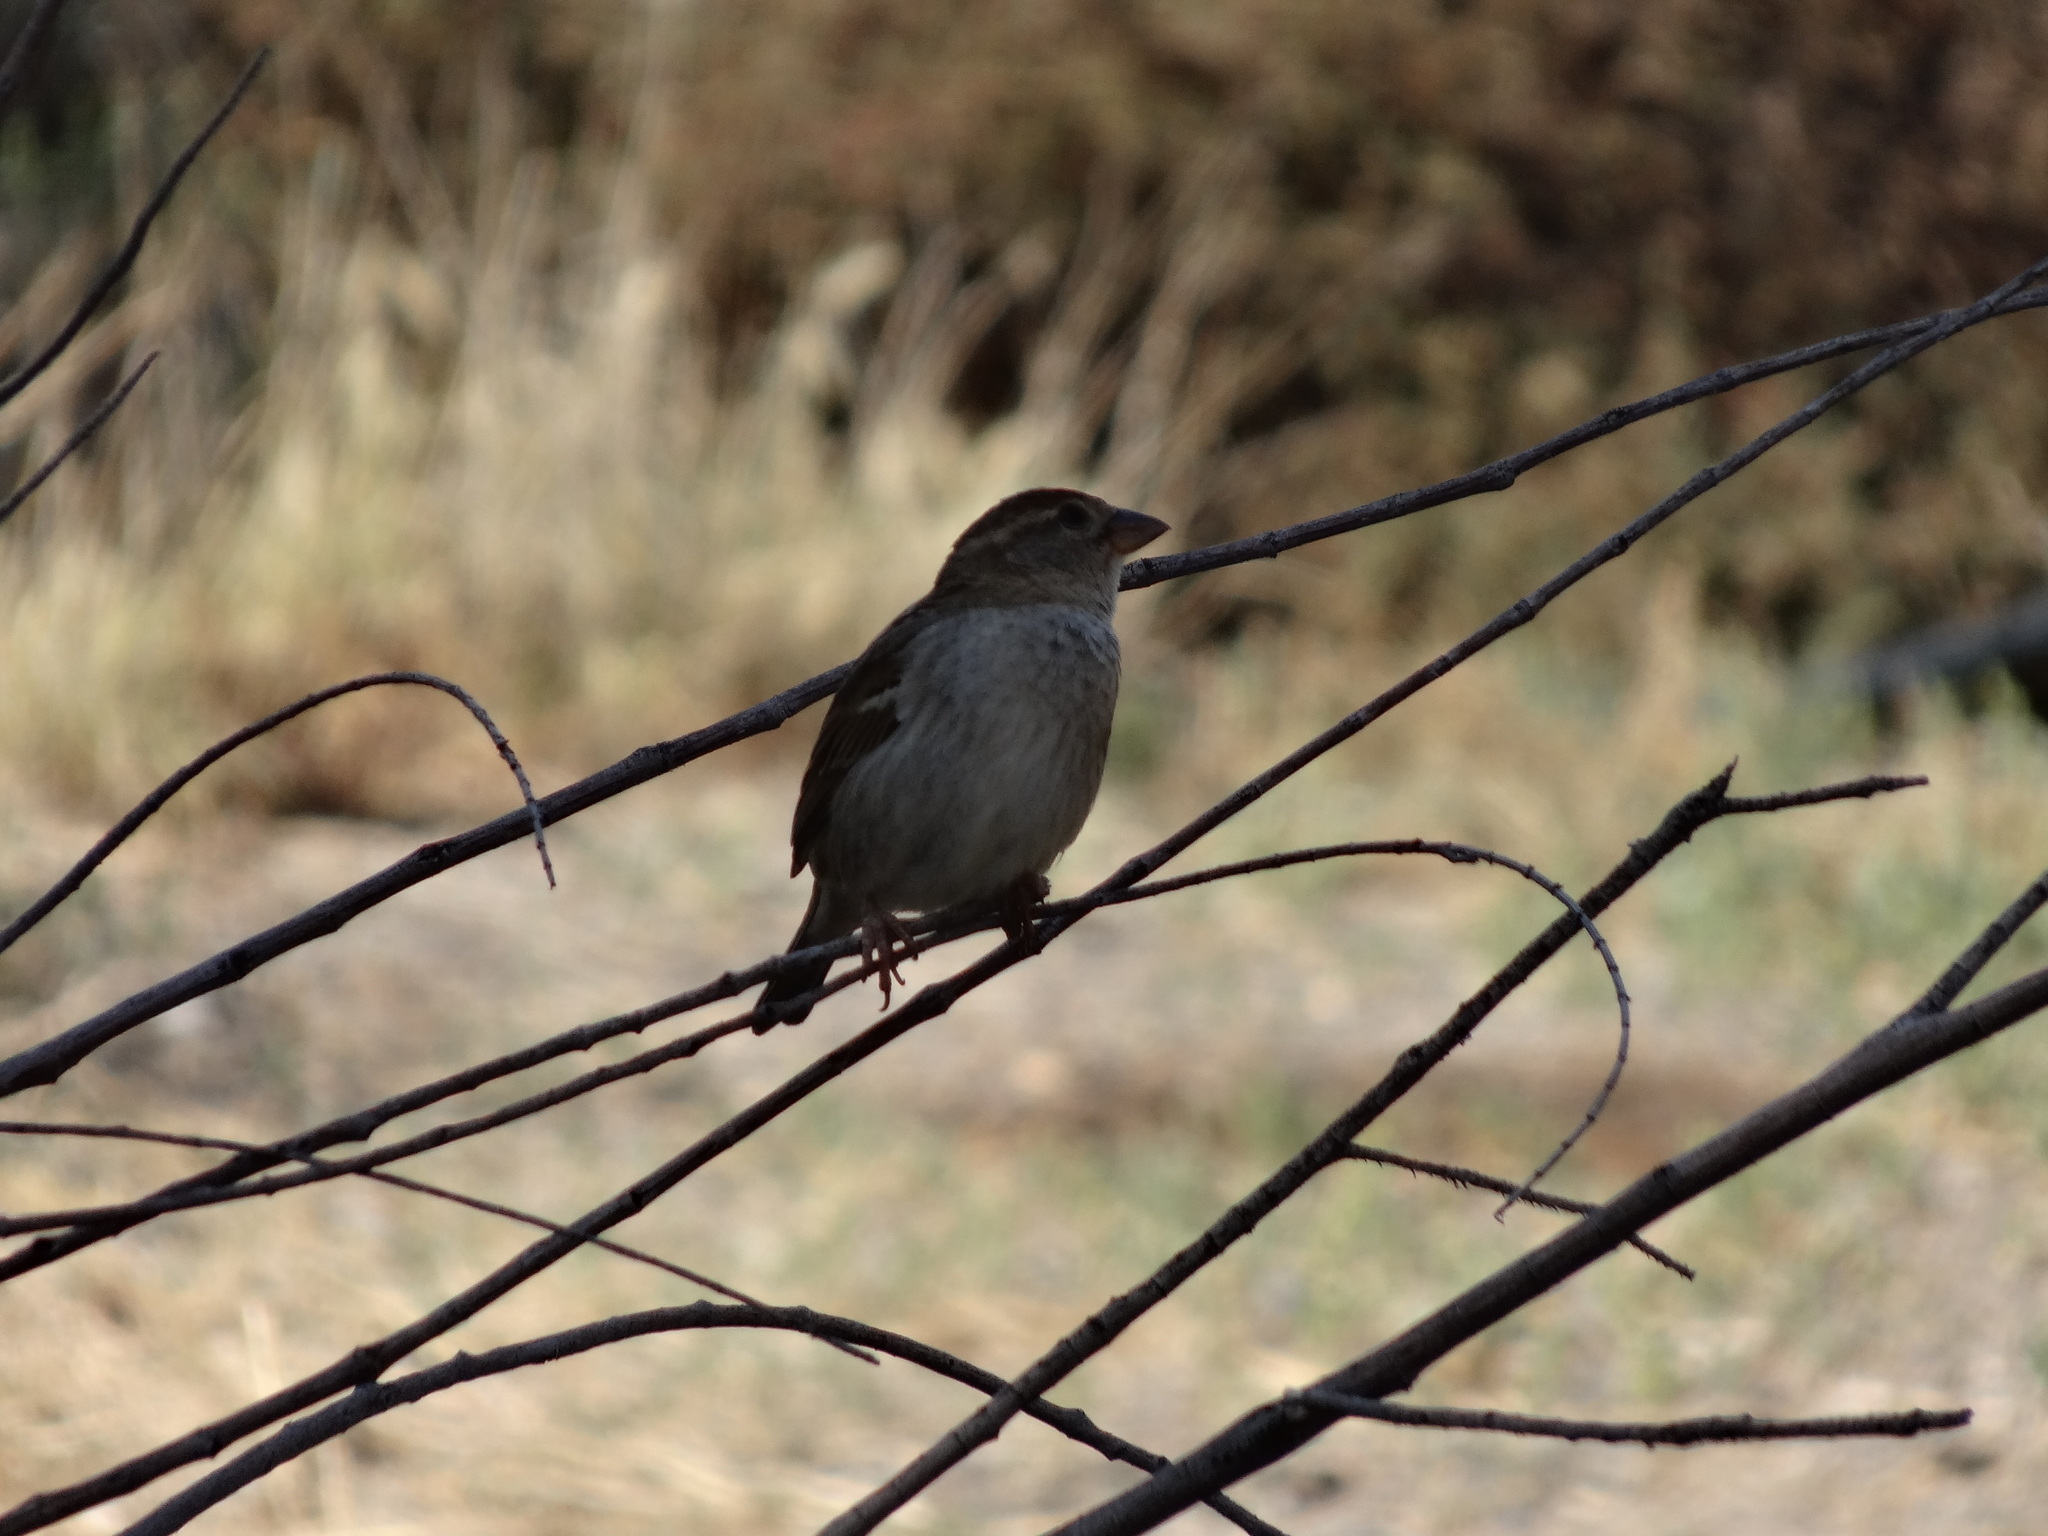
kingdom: Animalia
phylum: Chordata
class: Aves
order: Passeriformes
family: Passeridae
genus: Passer
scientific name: Passer hispaniolensis
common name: Spanish sparrow
